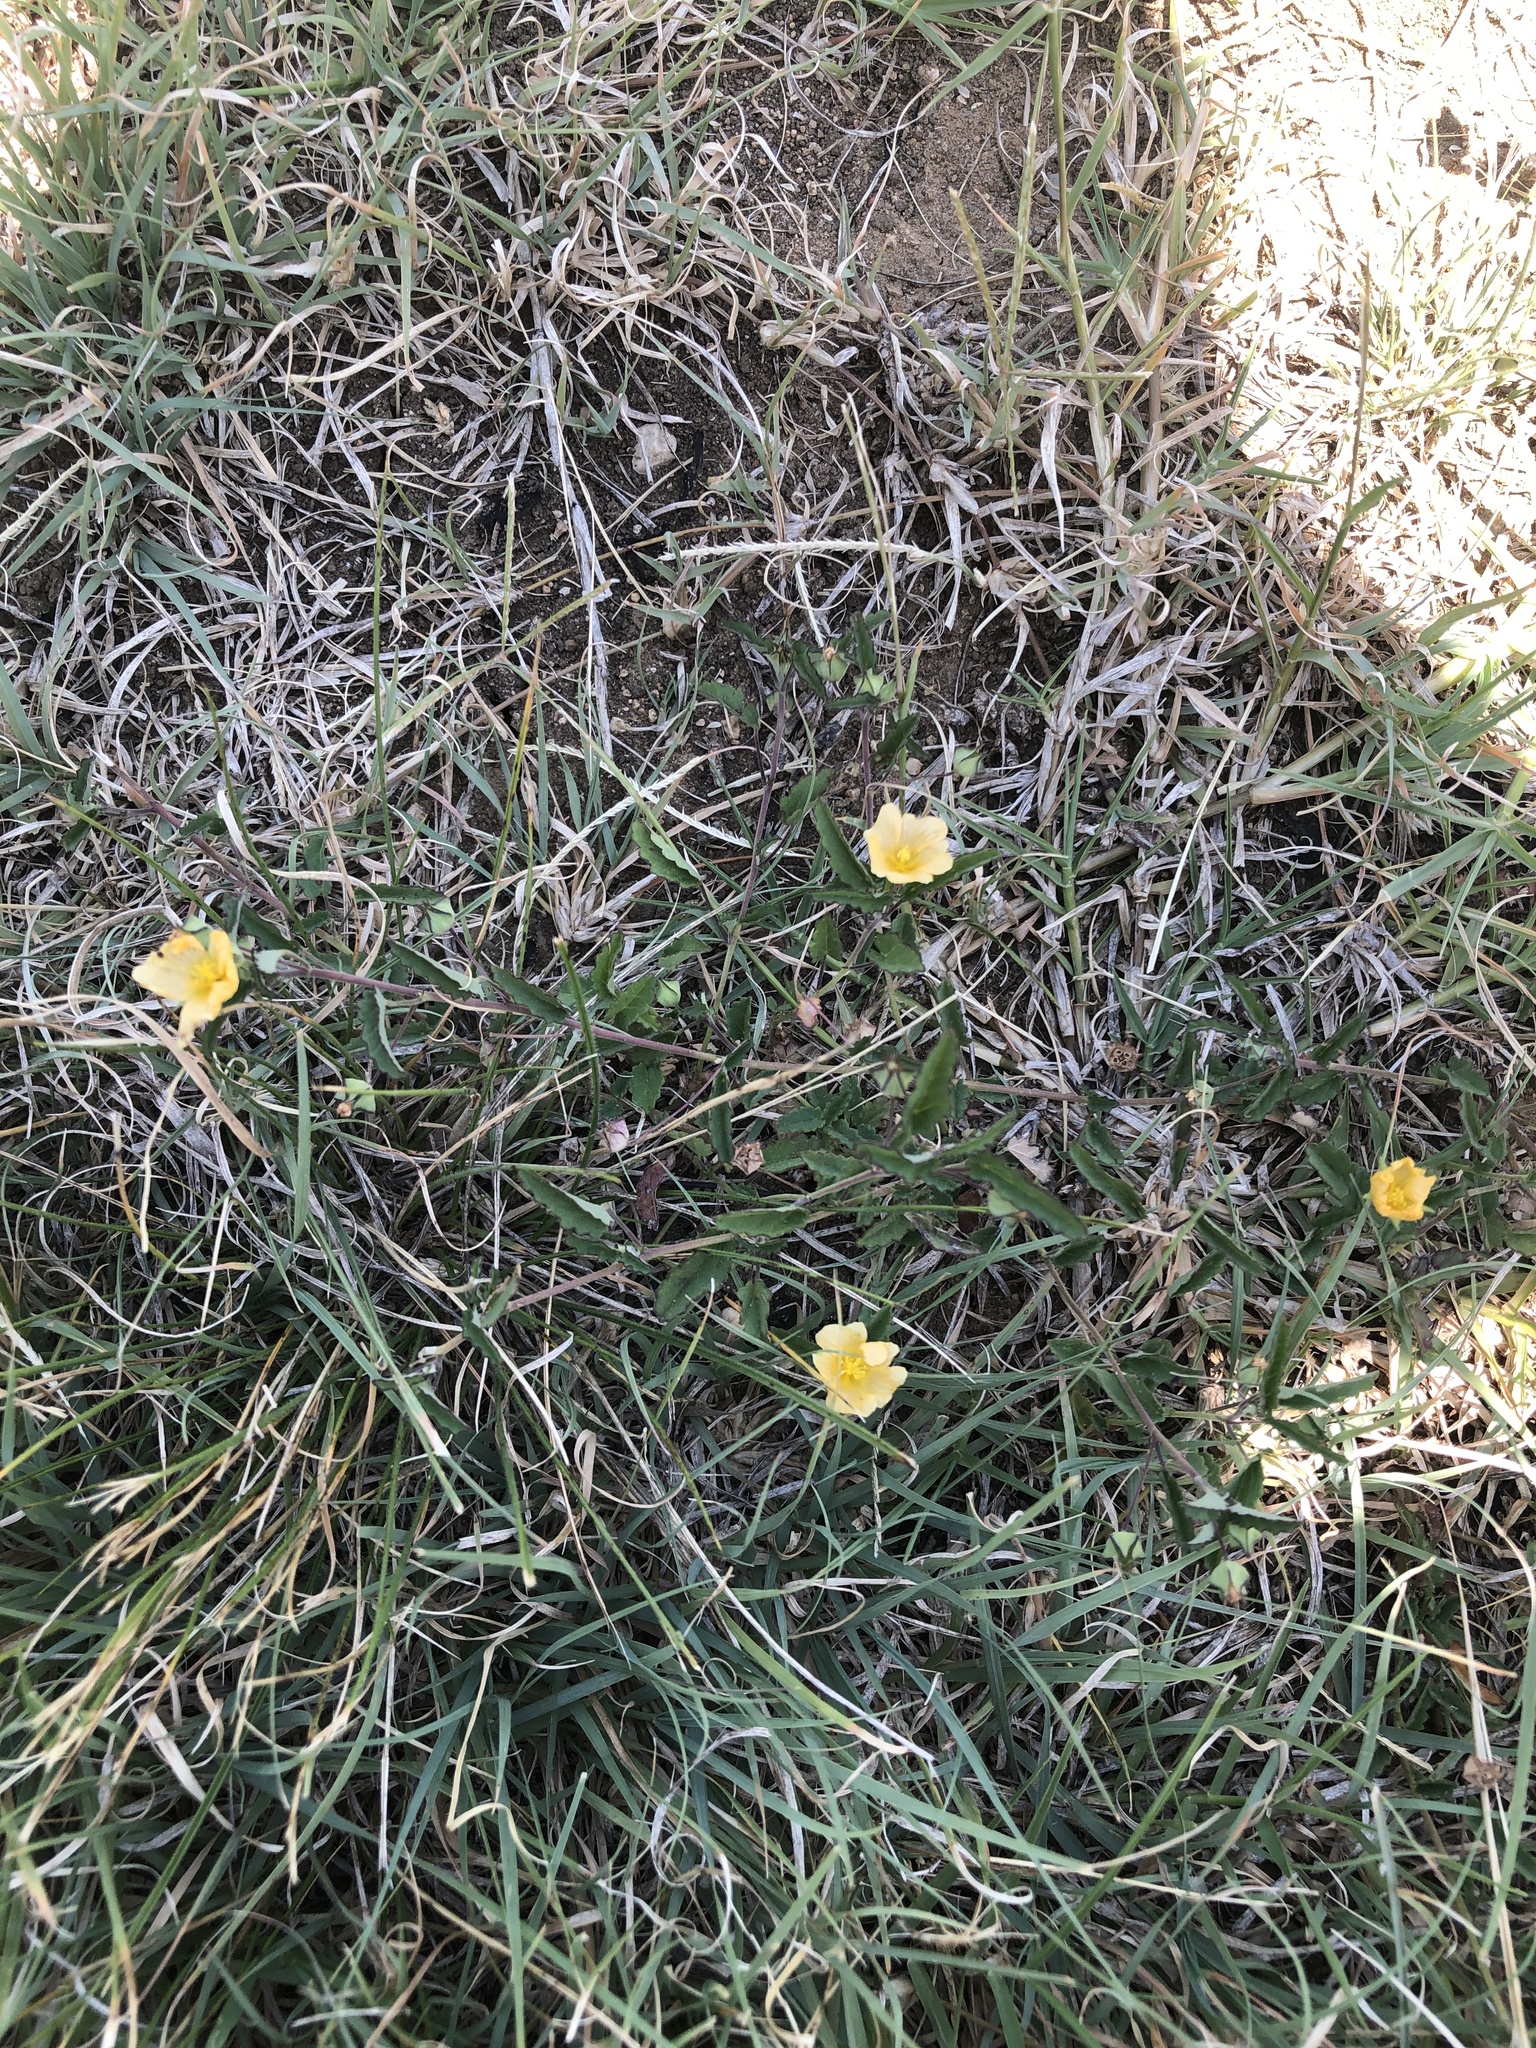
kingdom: Plantae
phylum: Tracheophyta
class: Magnoliopsida
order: Malvales
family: Malvaceae
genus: Sida
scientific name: Sida abutilifolia
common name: Spreading fanpetals
